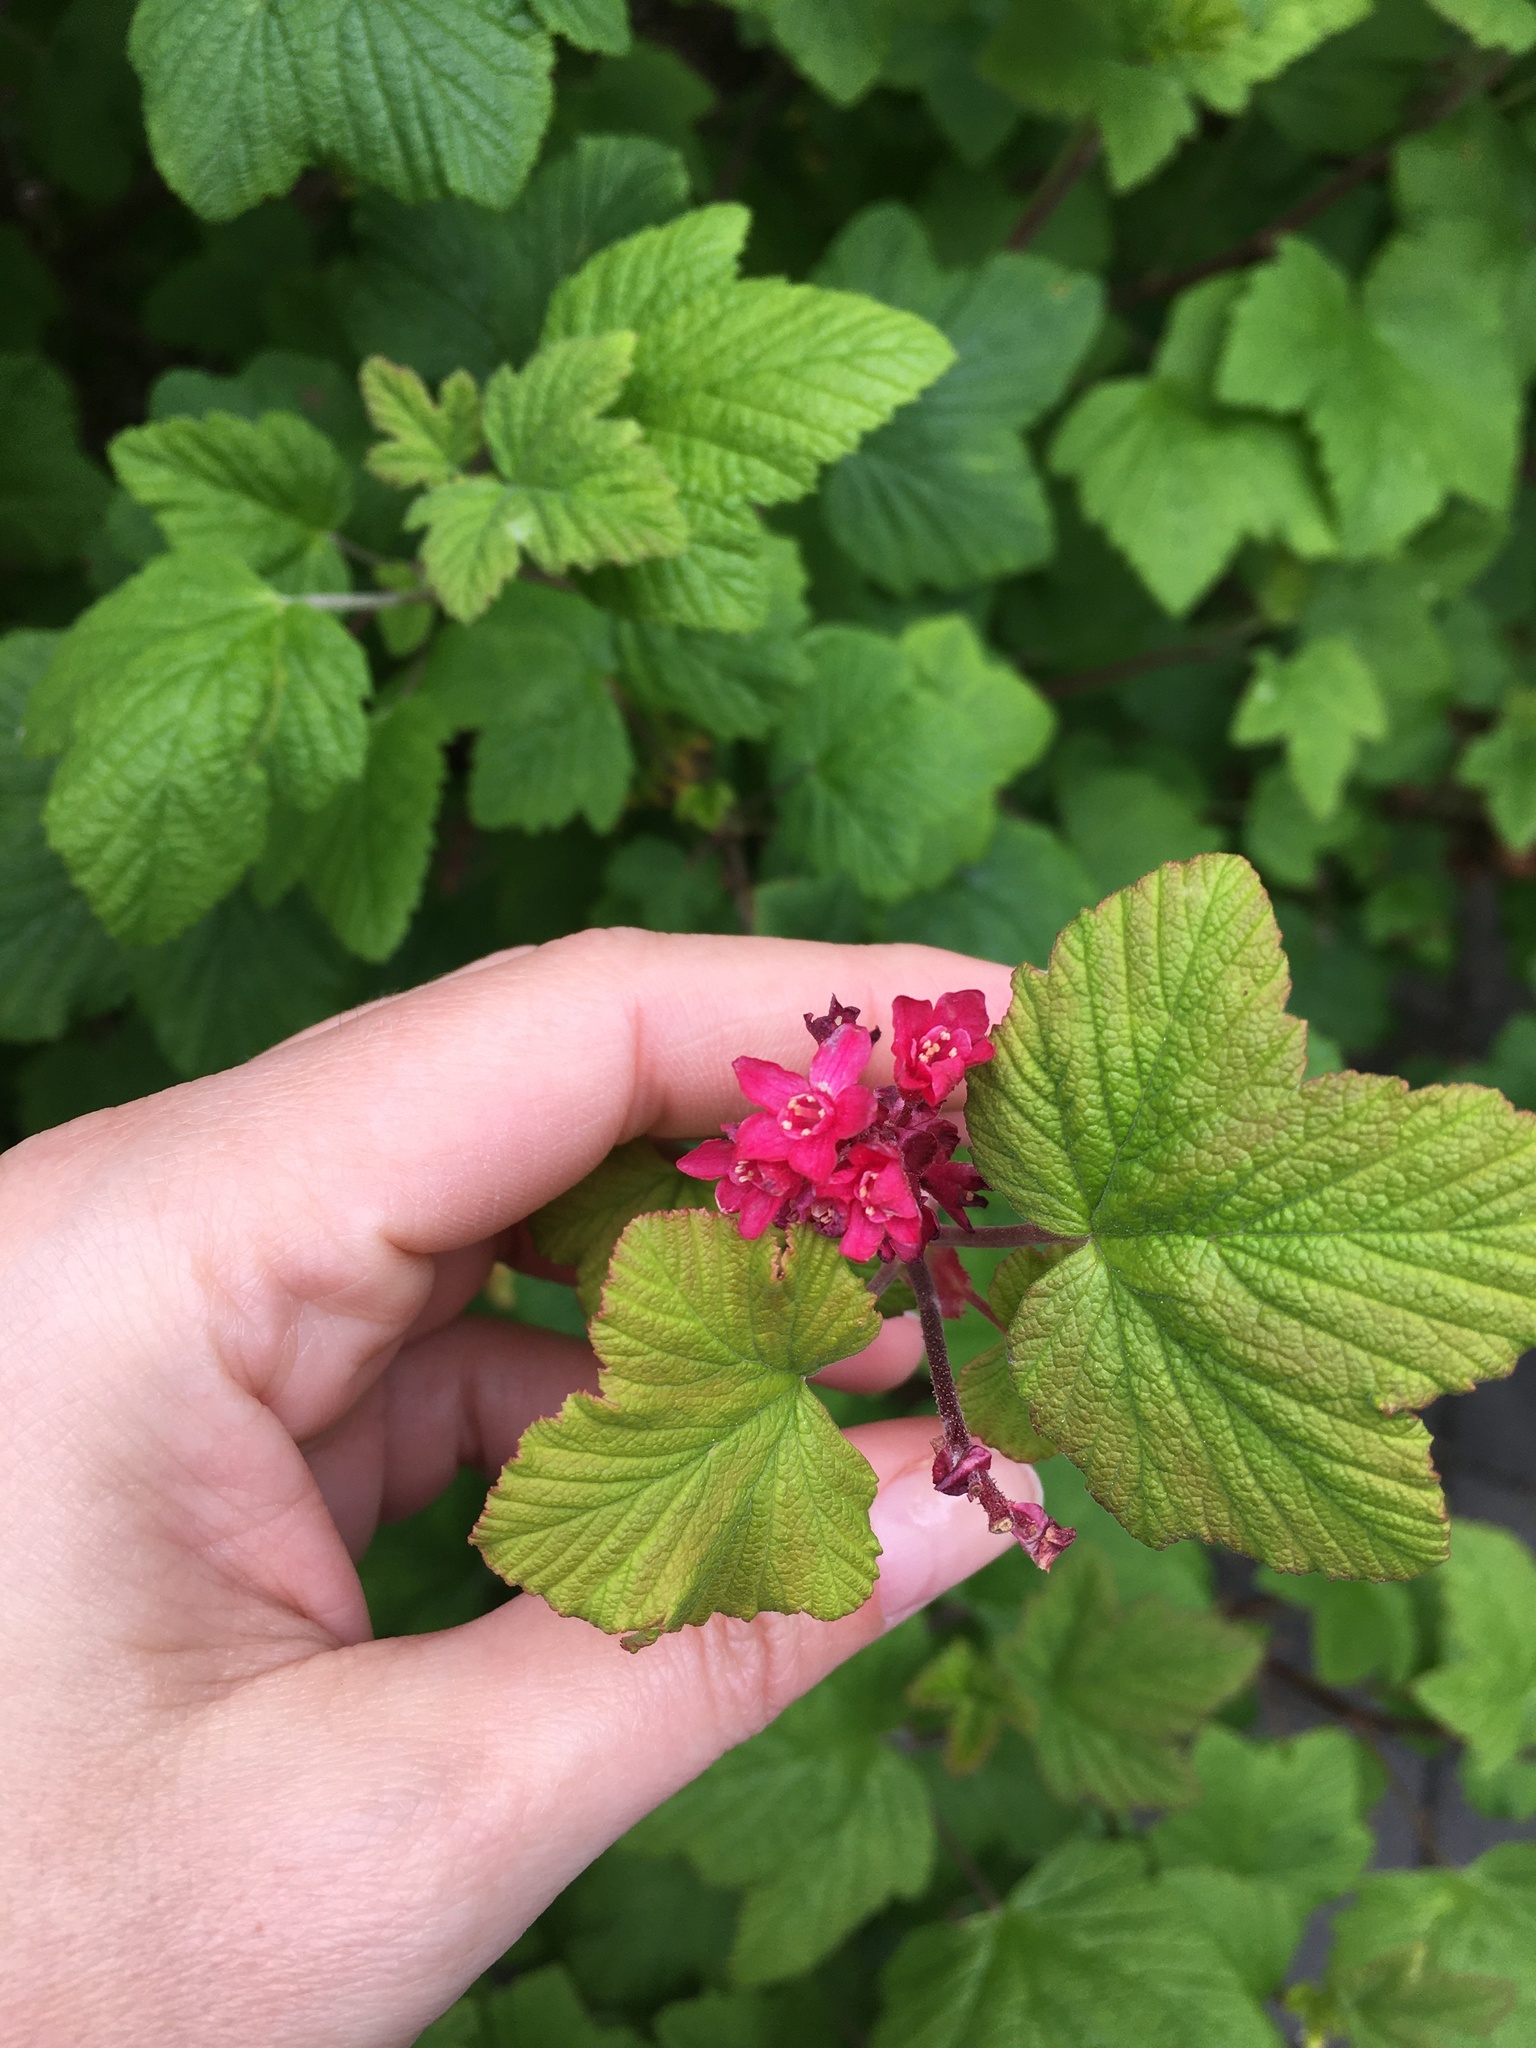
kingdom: Plantae
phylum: Tracheophyta
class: Magnoliopsida
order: Saxifragales
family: Grossulariaceae
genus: Ribes
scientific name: Ribes sanguineum
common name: Flowering currant
